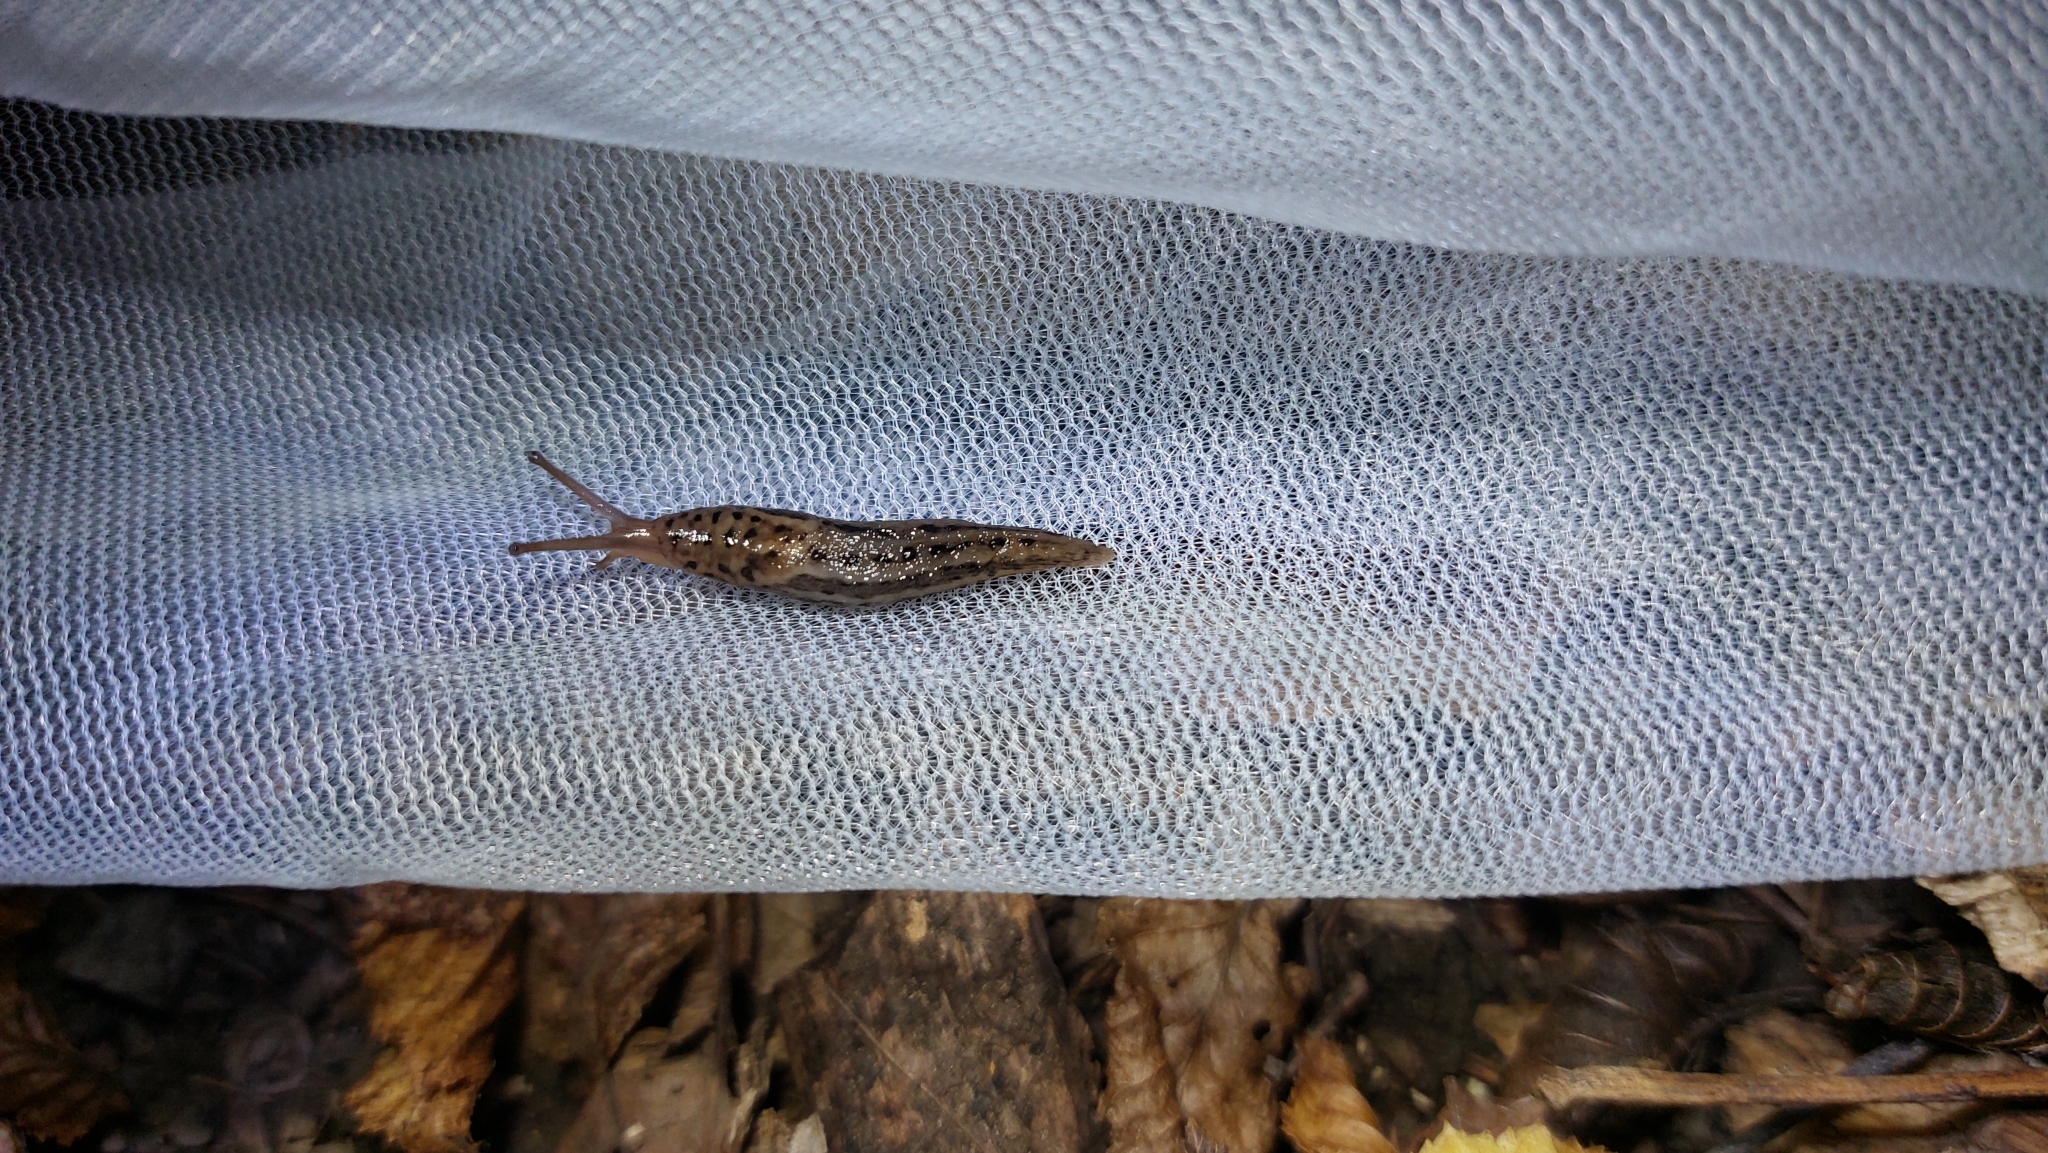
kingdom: Animalia
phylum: Mollusca
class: Gastropoda
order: Stylommatophora
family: Limacidae
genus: Limax
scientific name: Limax maximus
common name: Great grey slug
